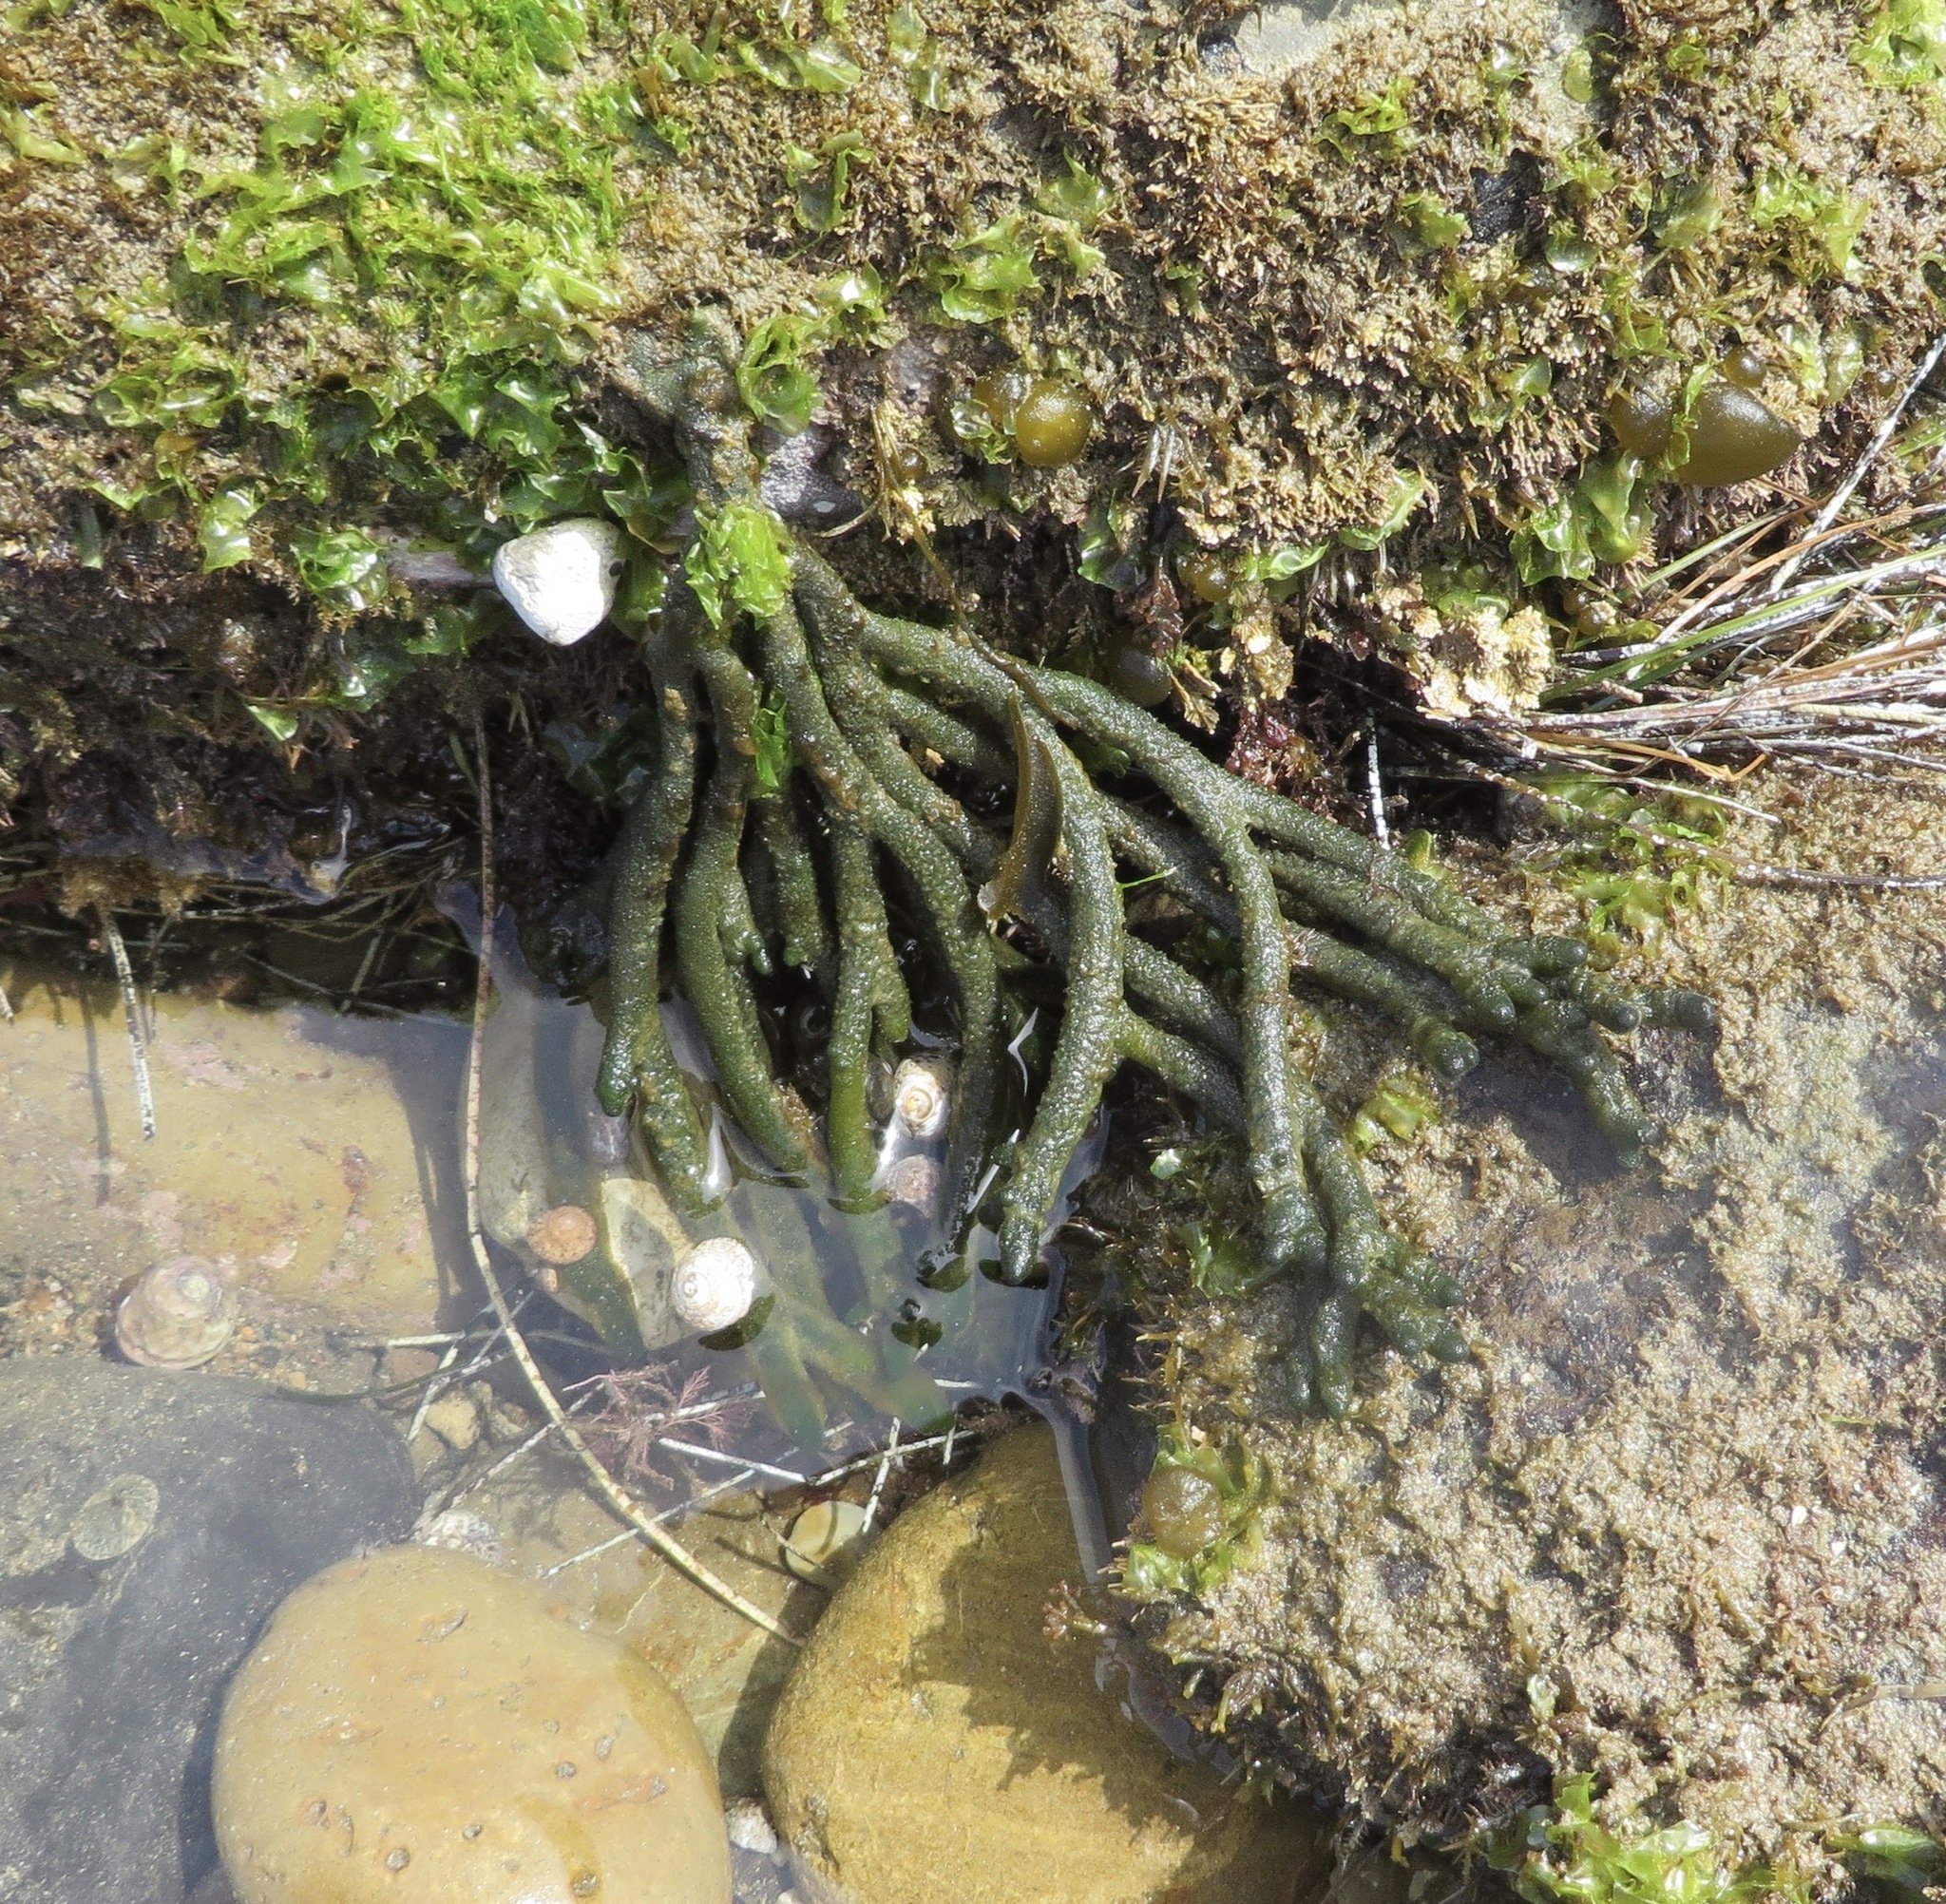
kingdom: Plantae
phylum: Chlorophyta
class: Ulvophyceae
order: Bryopsidales
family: Codiaceae
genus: Codium
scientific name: Codium fragile
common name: Dead man's fingers
